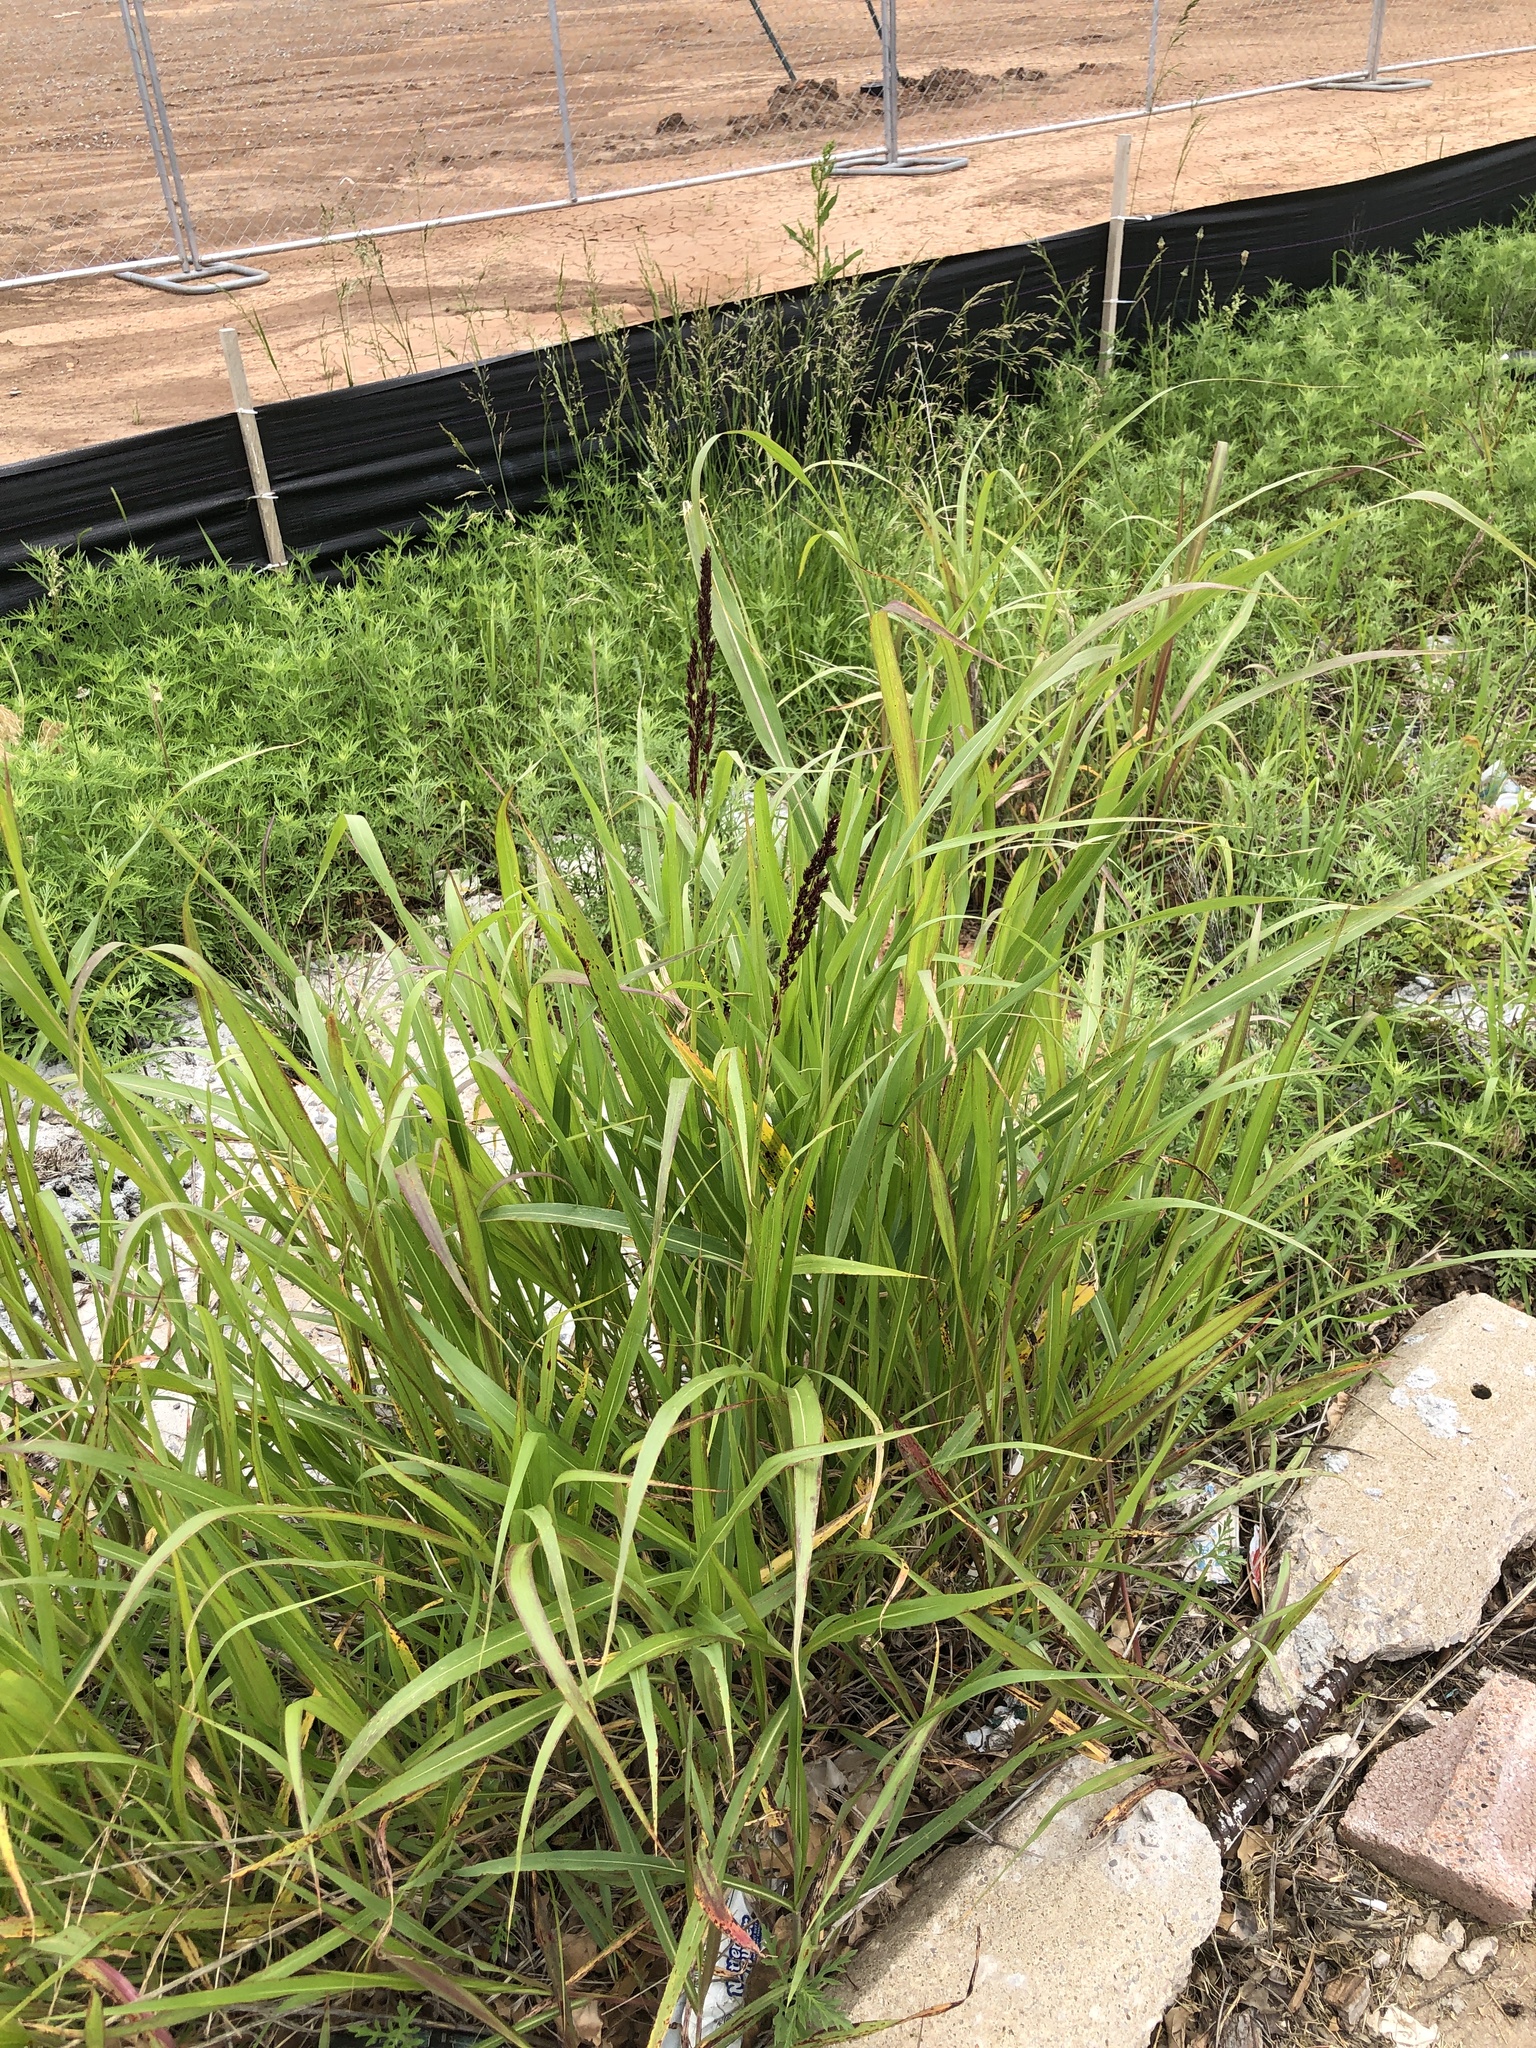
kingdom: Plantae
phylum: Tracheophyta
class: Liliopsida
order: Poales
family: Poaceae
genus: Sorghum
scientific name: Sorghum halepense
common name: Johnson-grass
